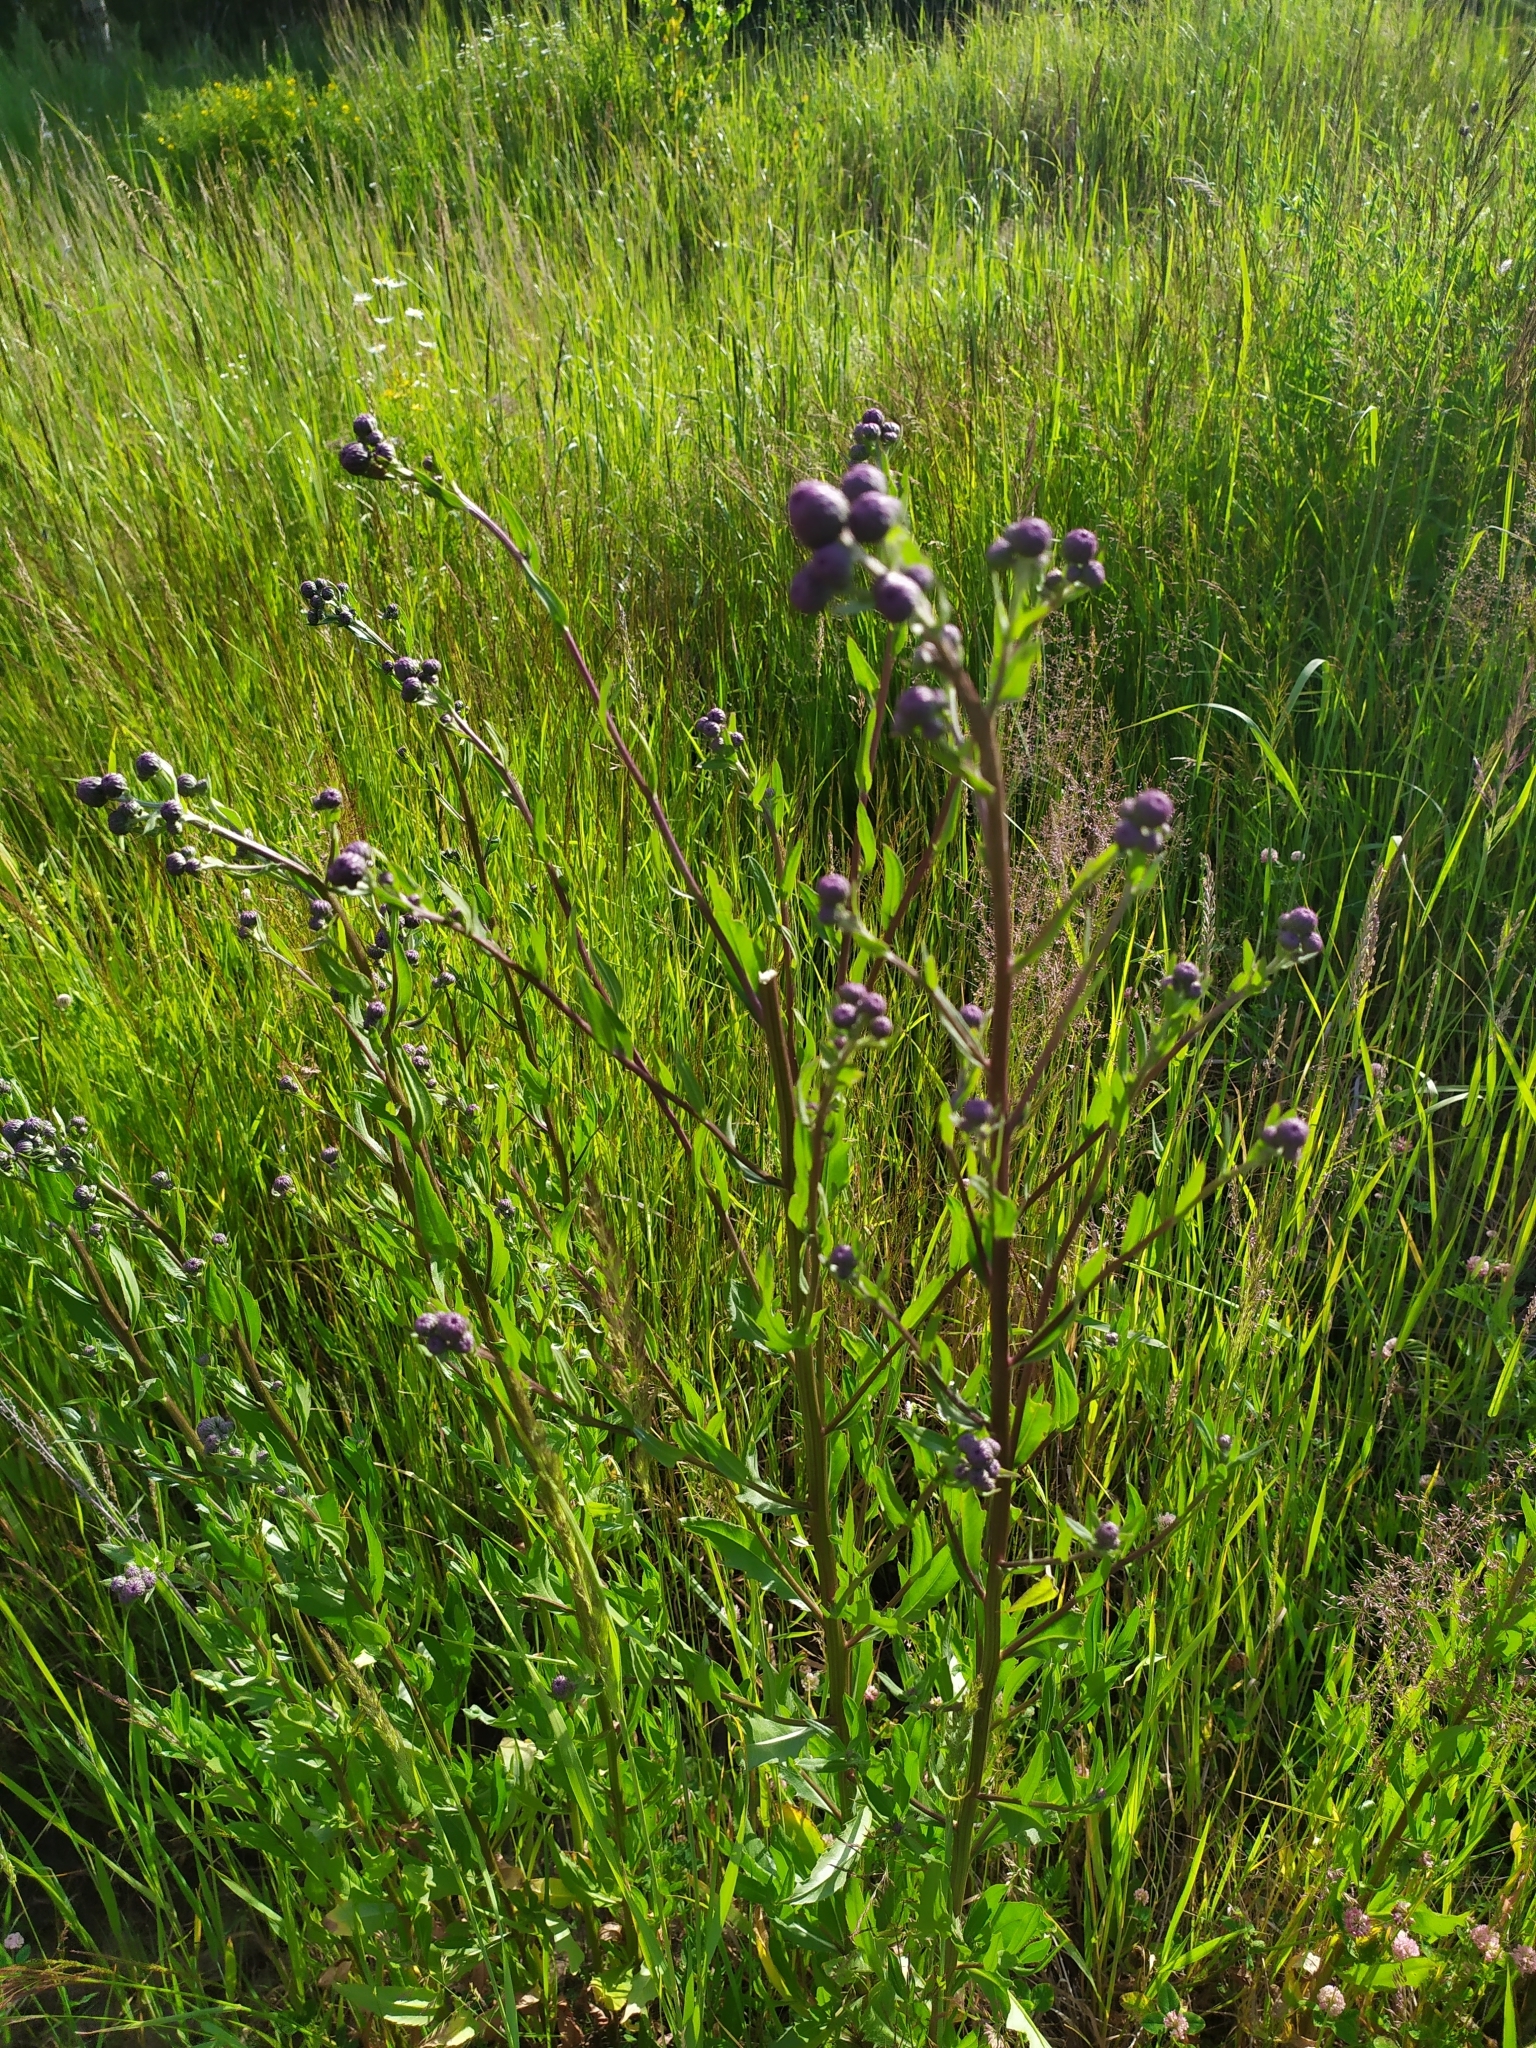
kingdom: Plantae
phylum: Tracheophyta
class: Magnoliopsida
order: Asterales
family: Asteraceae
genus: Cirsium
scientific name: Cirsium arvense
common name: Creeping thistle
